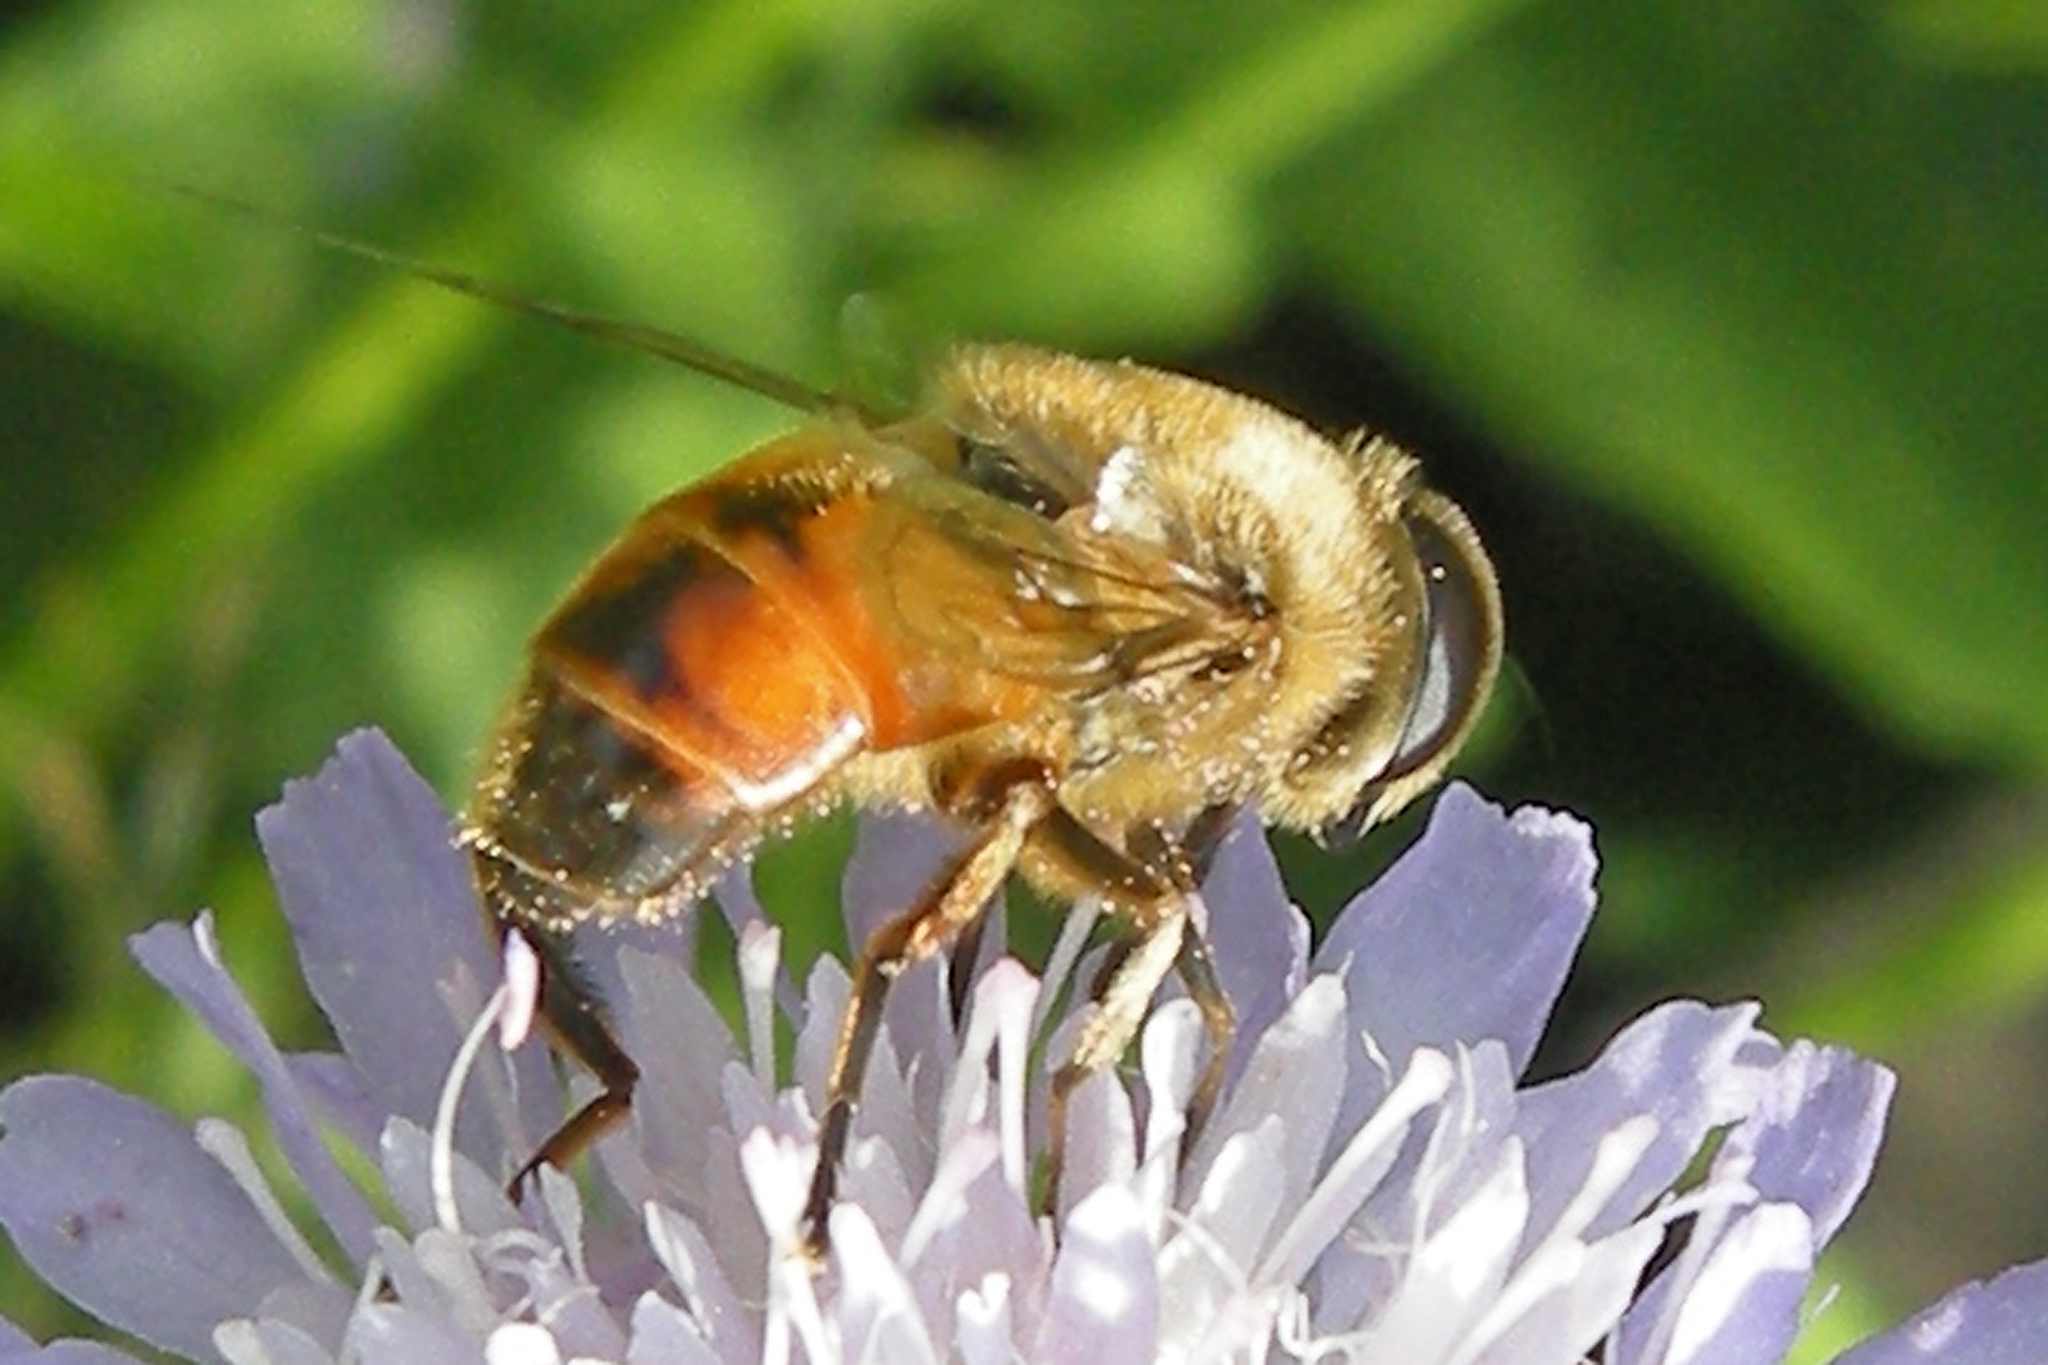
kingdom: Animalia
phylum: Arthropoda
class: Insecta
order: Diptera
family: Syrphidae
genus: Eristalis
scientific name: Eristalis tenax
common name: Drone fly
